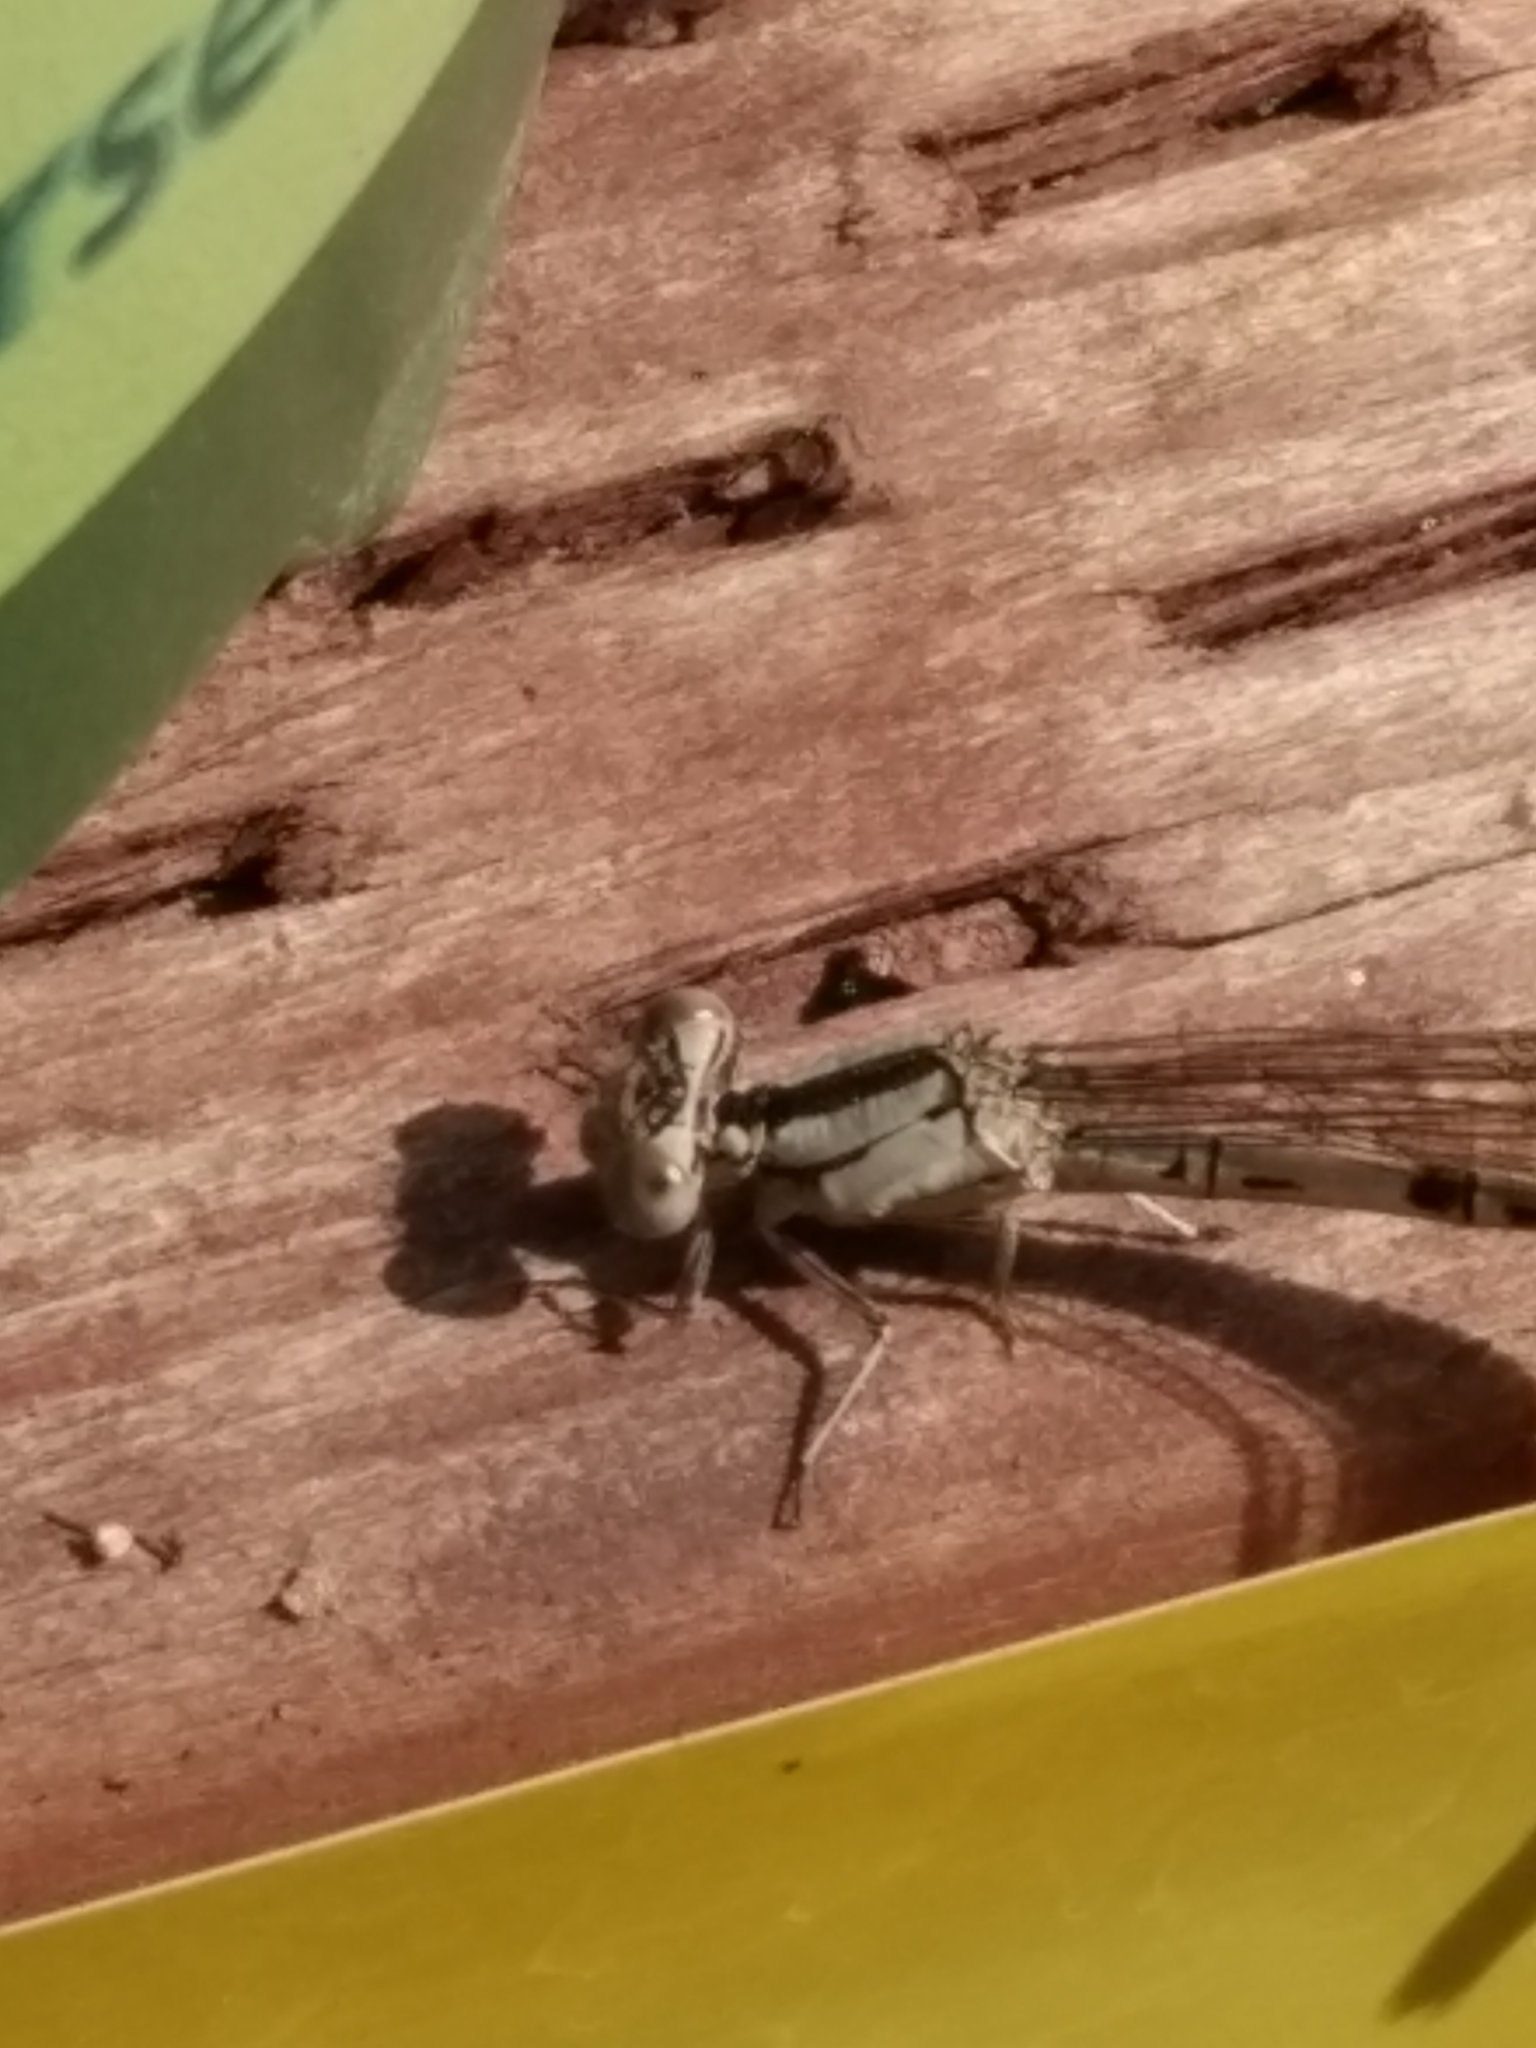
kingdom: Animalia
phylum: Arthropoda
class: Insecta
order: Odonata
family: Coenagrionidae
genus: Argia
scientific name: Argia vivida
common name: Vivid dancer
